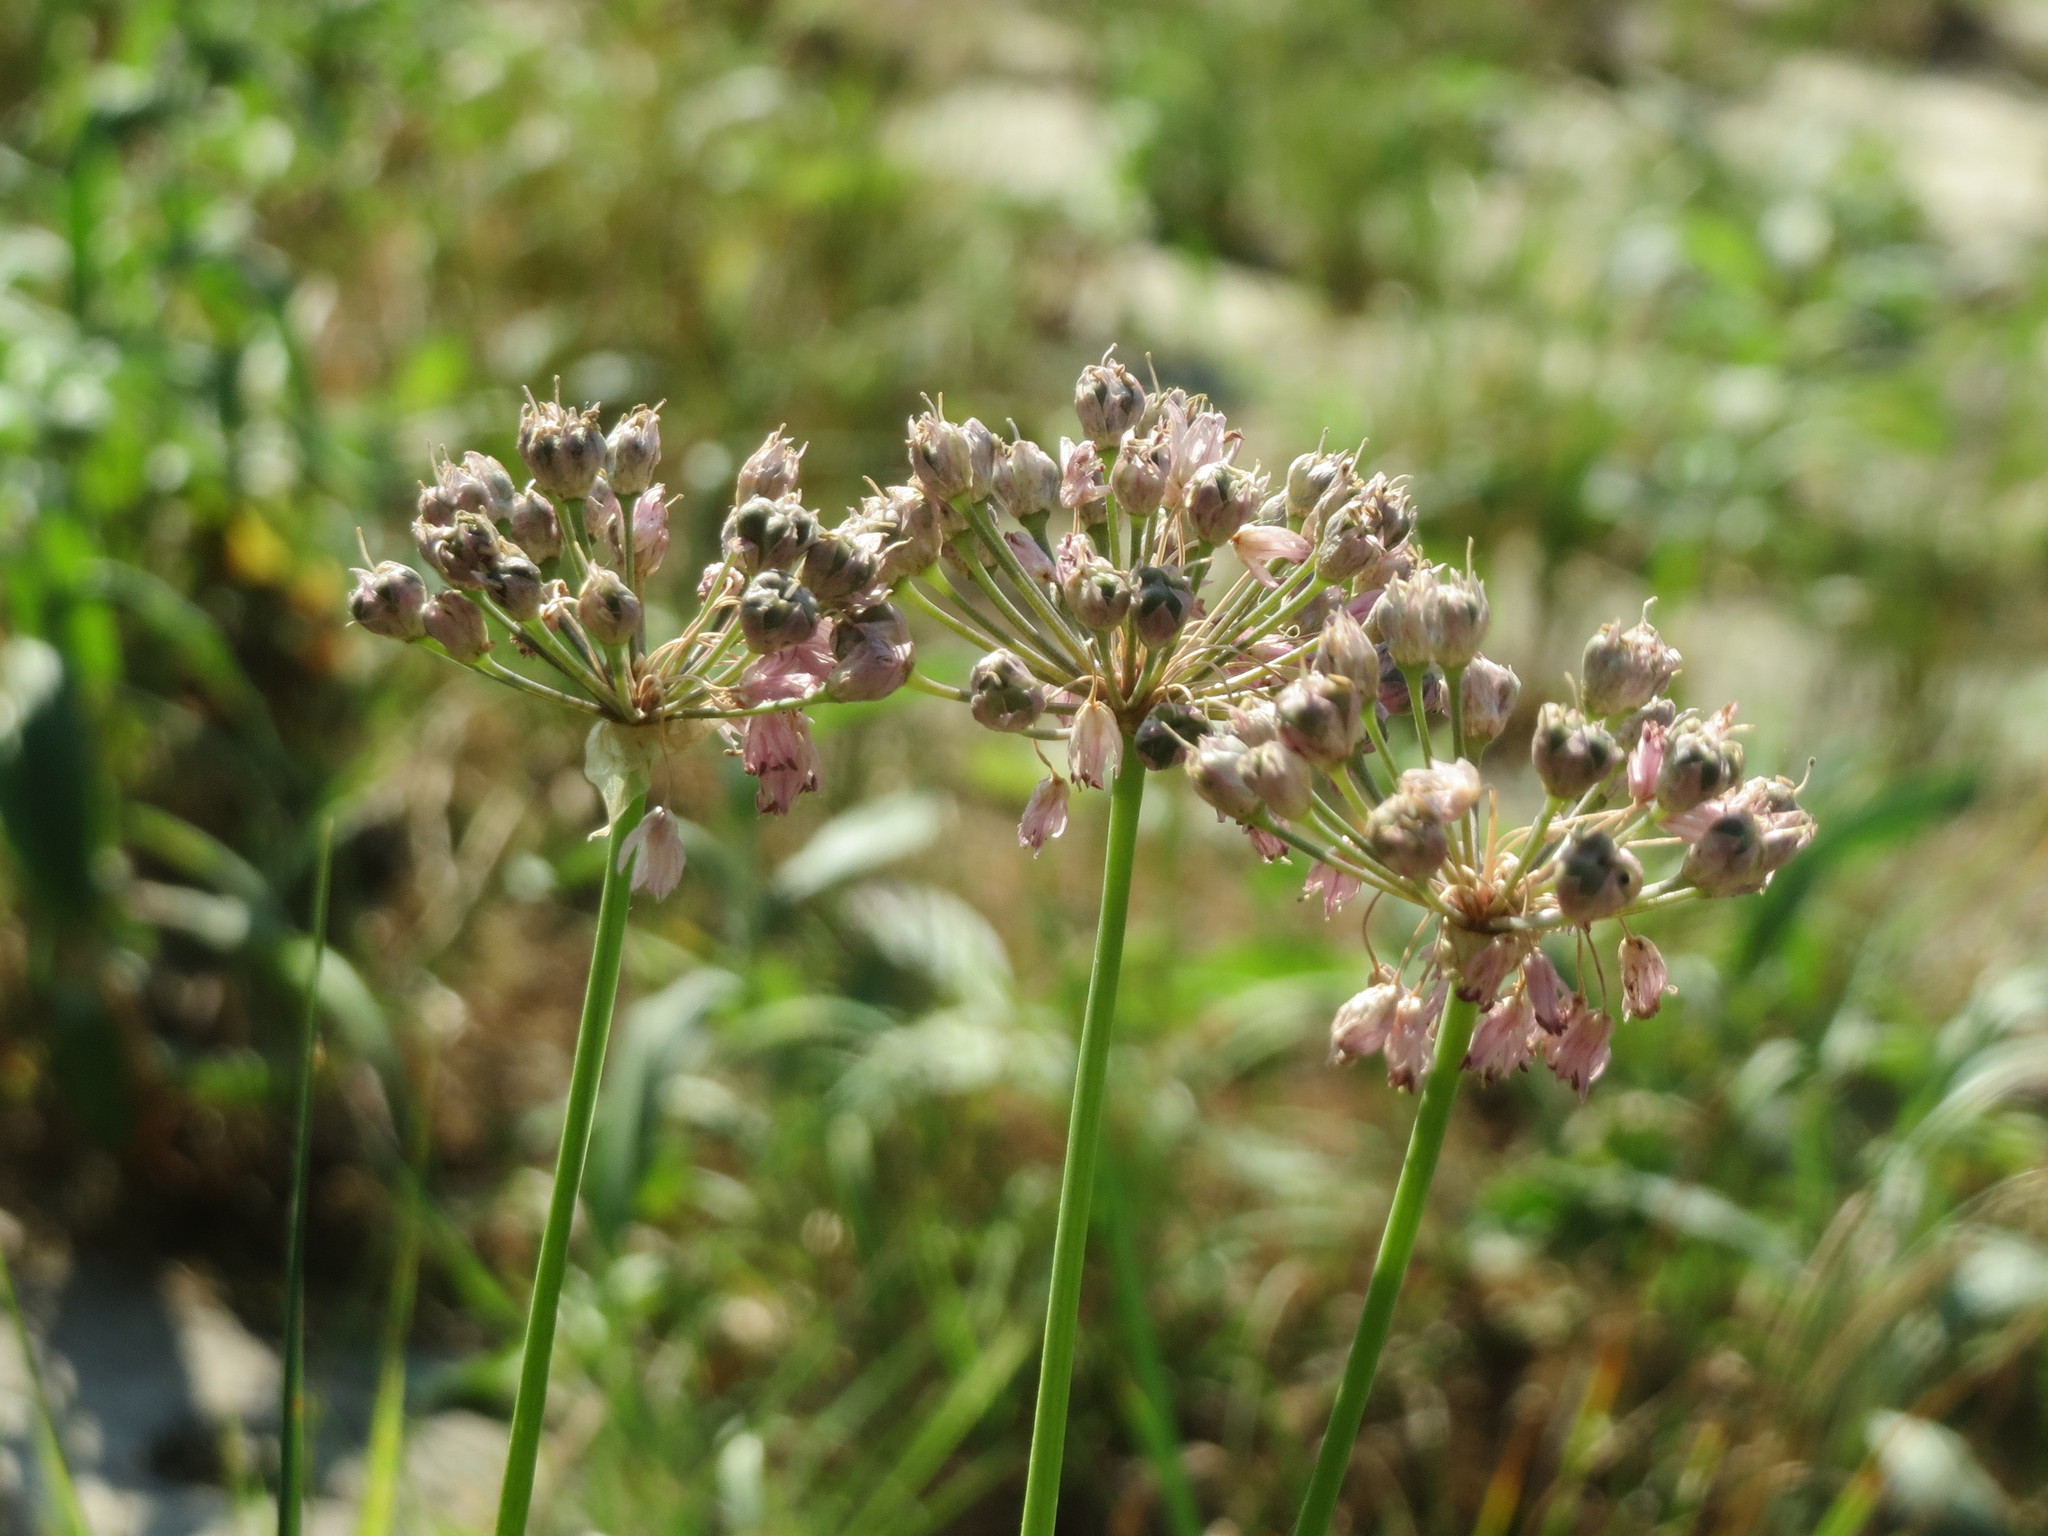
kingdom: Plantae
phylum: Tracheophyta
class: Liliopsida
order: Asparagales
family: Amaryllidaceae
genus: Allium
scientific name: Allium angulosum
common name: Mouse garlic
